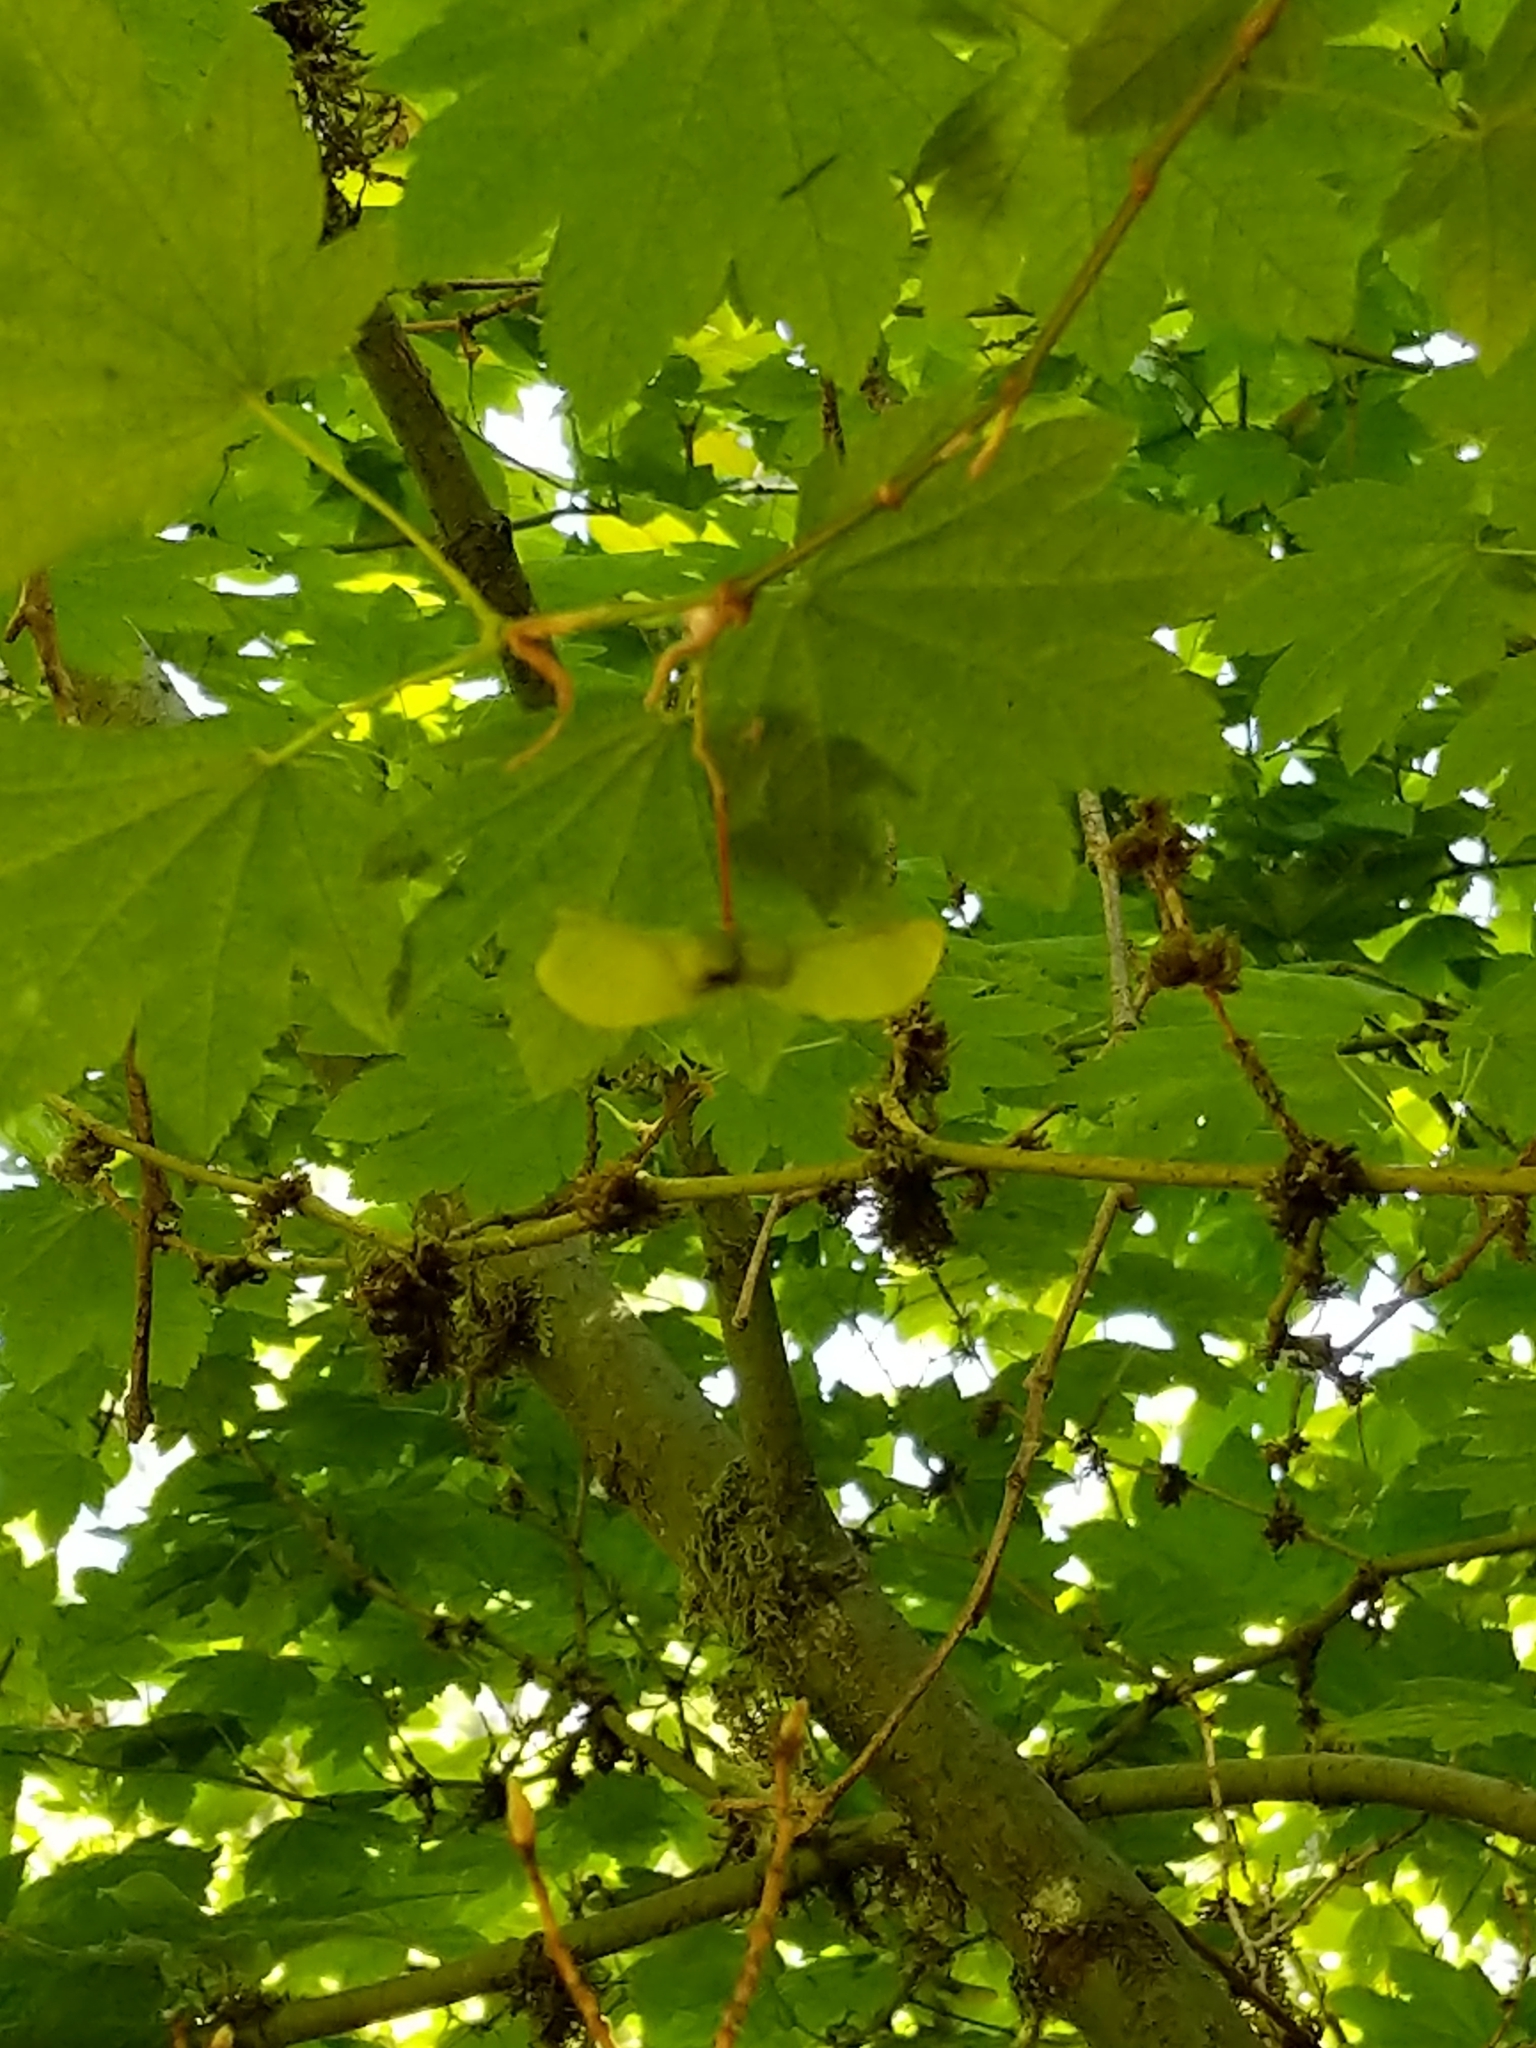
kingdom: Plantae
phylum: Tracheophyta
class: Magnoliopsida
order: Sapindales
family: Sapindaceae
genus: Acer
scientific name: Acer circinatum
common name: Vine maple
